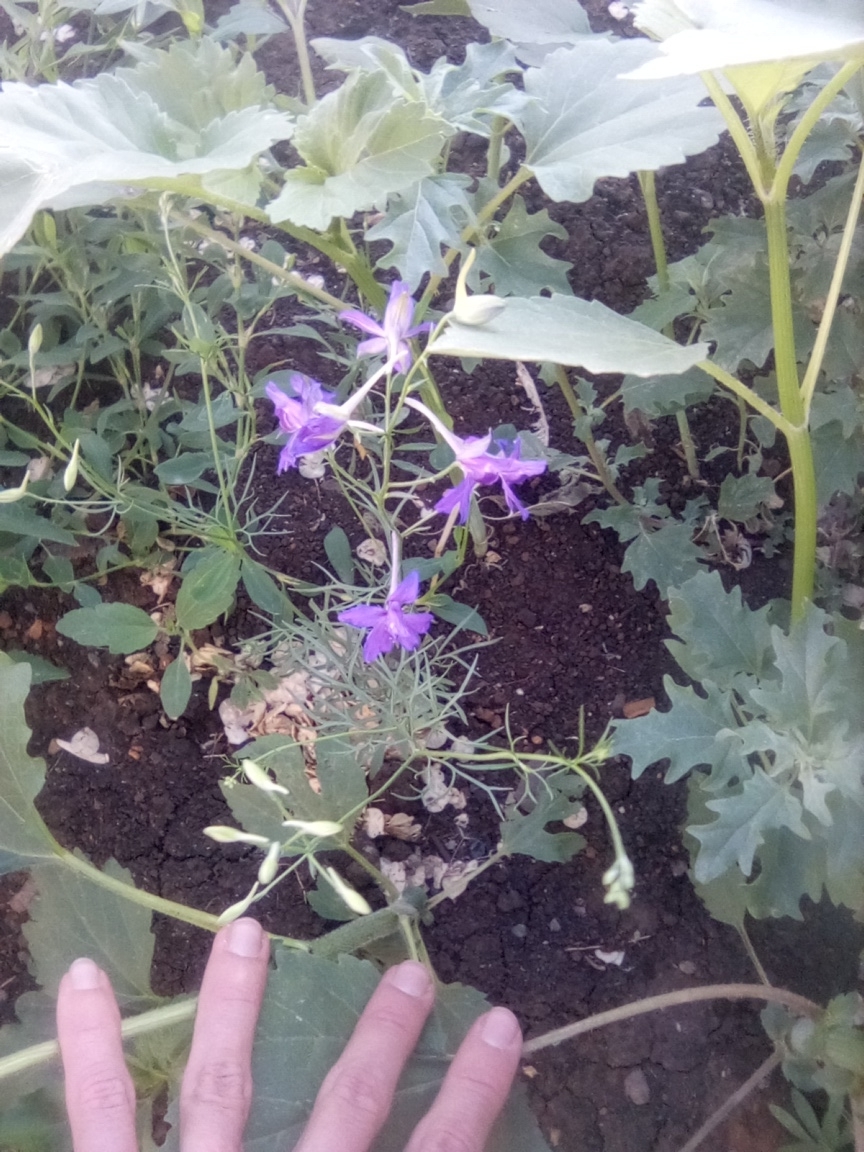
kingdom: Plantae
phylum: Tracheophyta
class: Magnoliopsida
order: Ranunculales
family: Ranunculaceae
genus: Delphinium
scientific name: Delphinium consolida
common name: Branching larkspur
